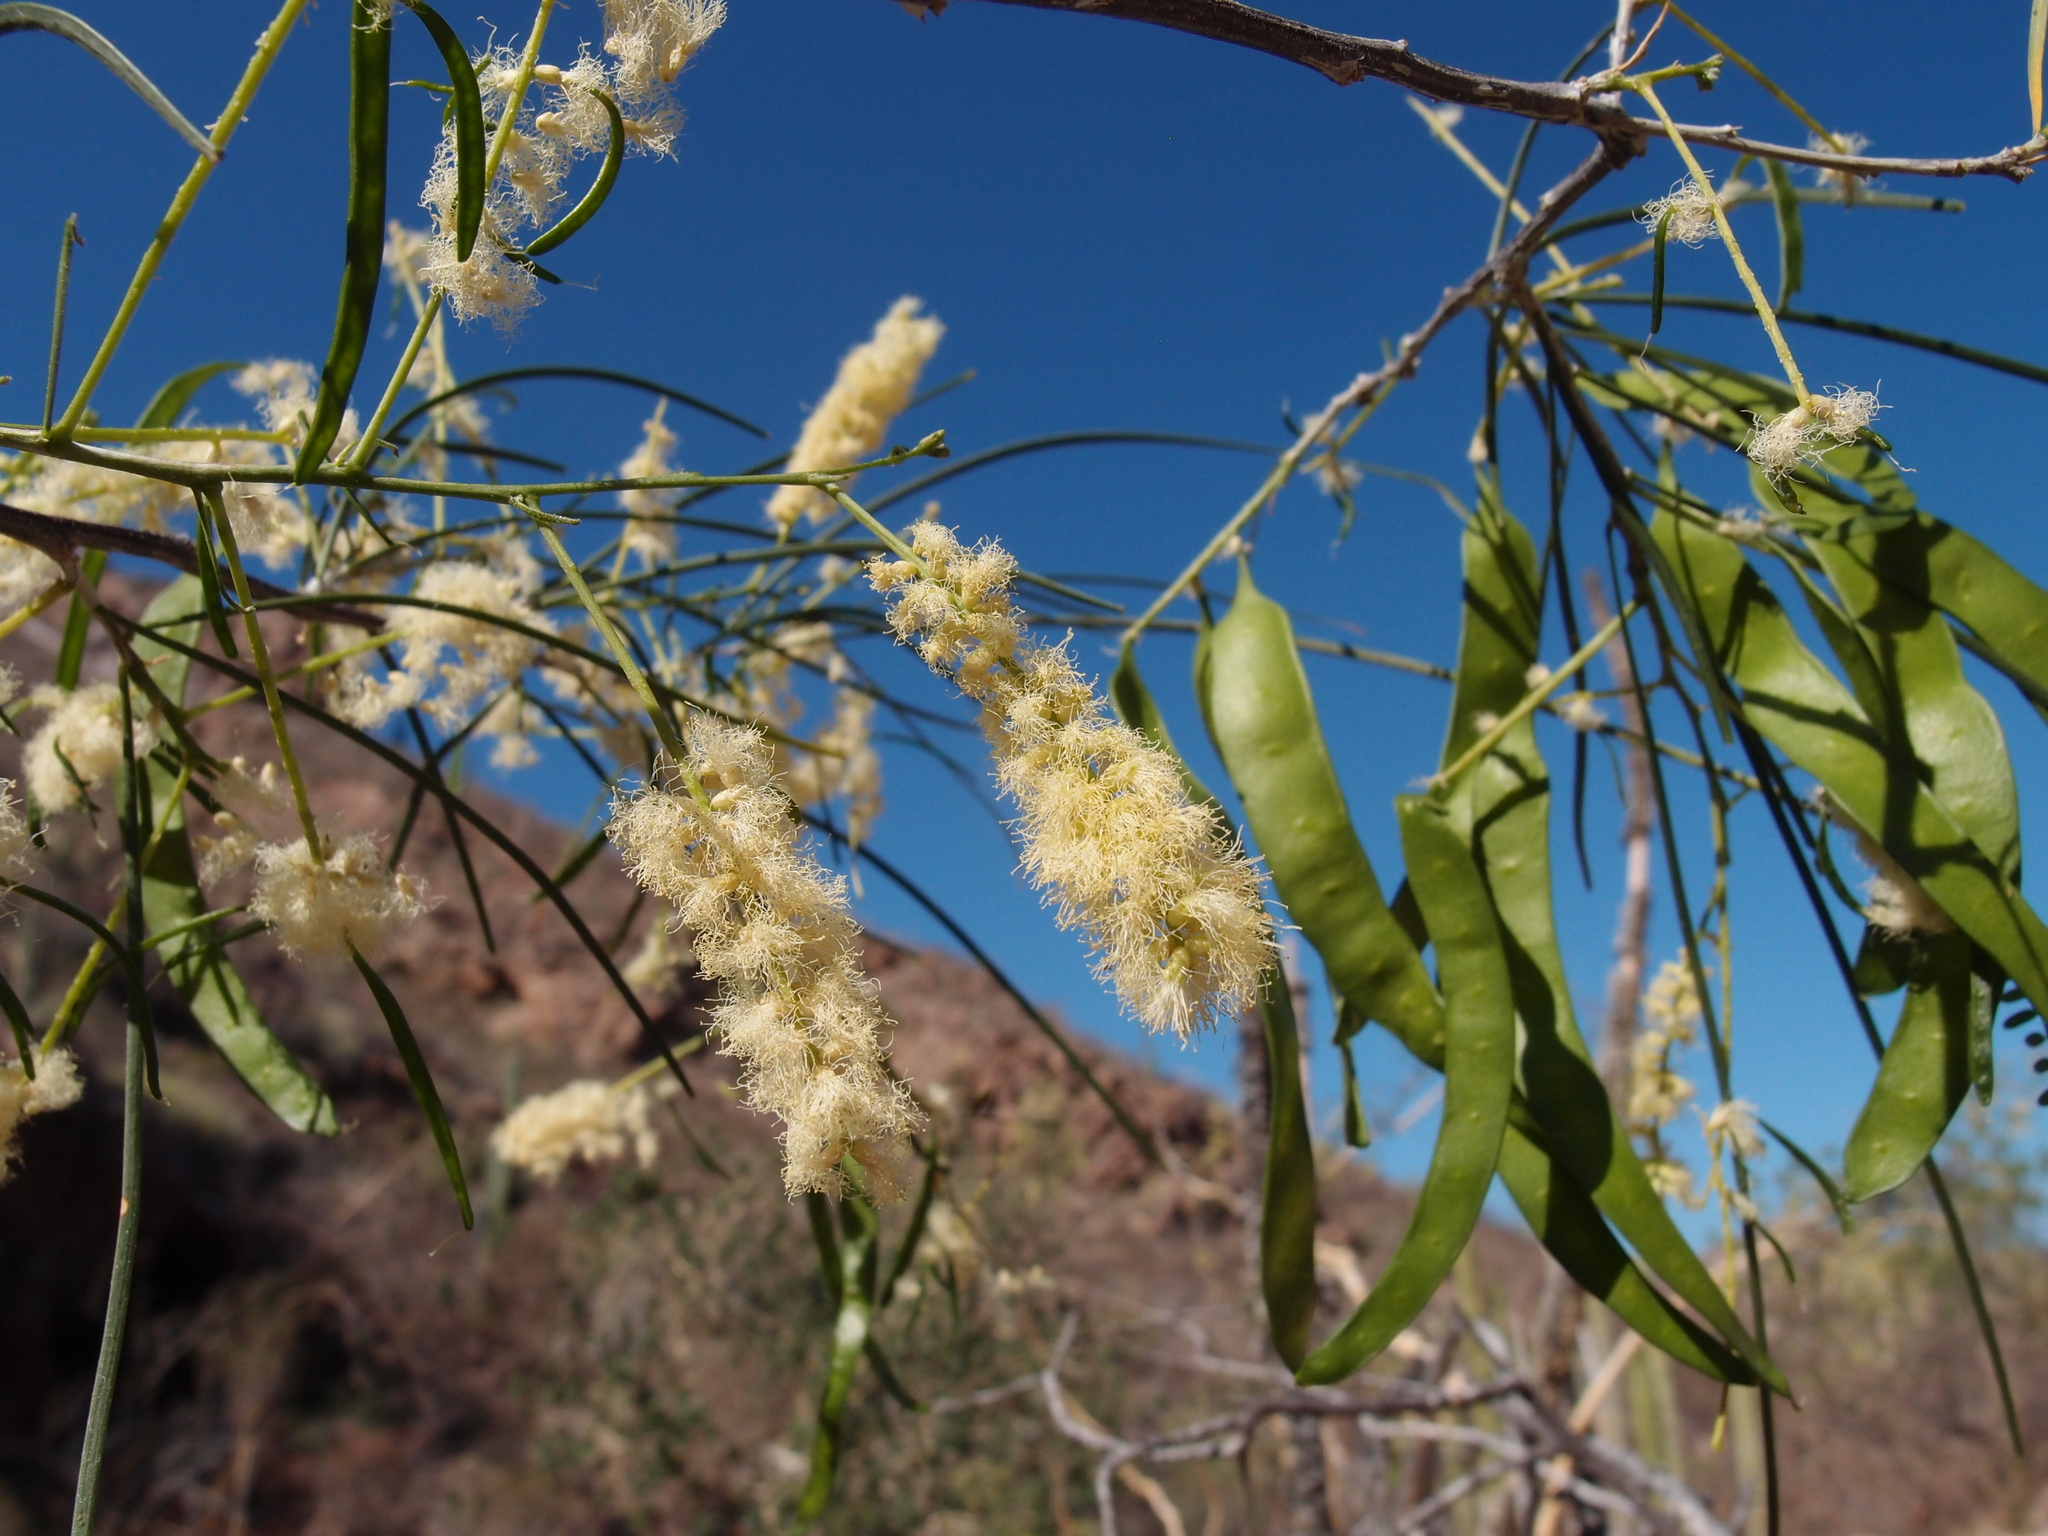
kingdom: Plantae
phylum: Tracheophyta
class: Magnoliopsida
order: Fabales
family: Fabaceae
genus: Mariosousa
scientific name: Mariosousa heterophylla
